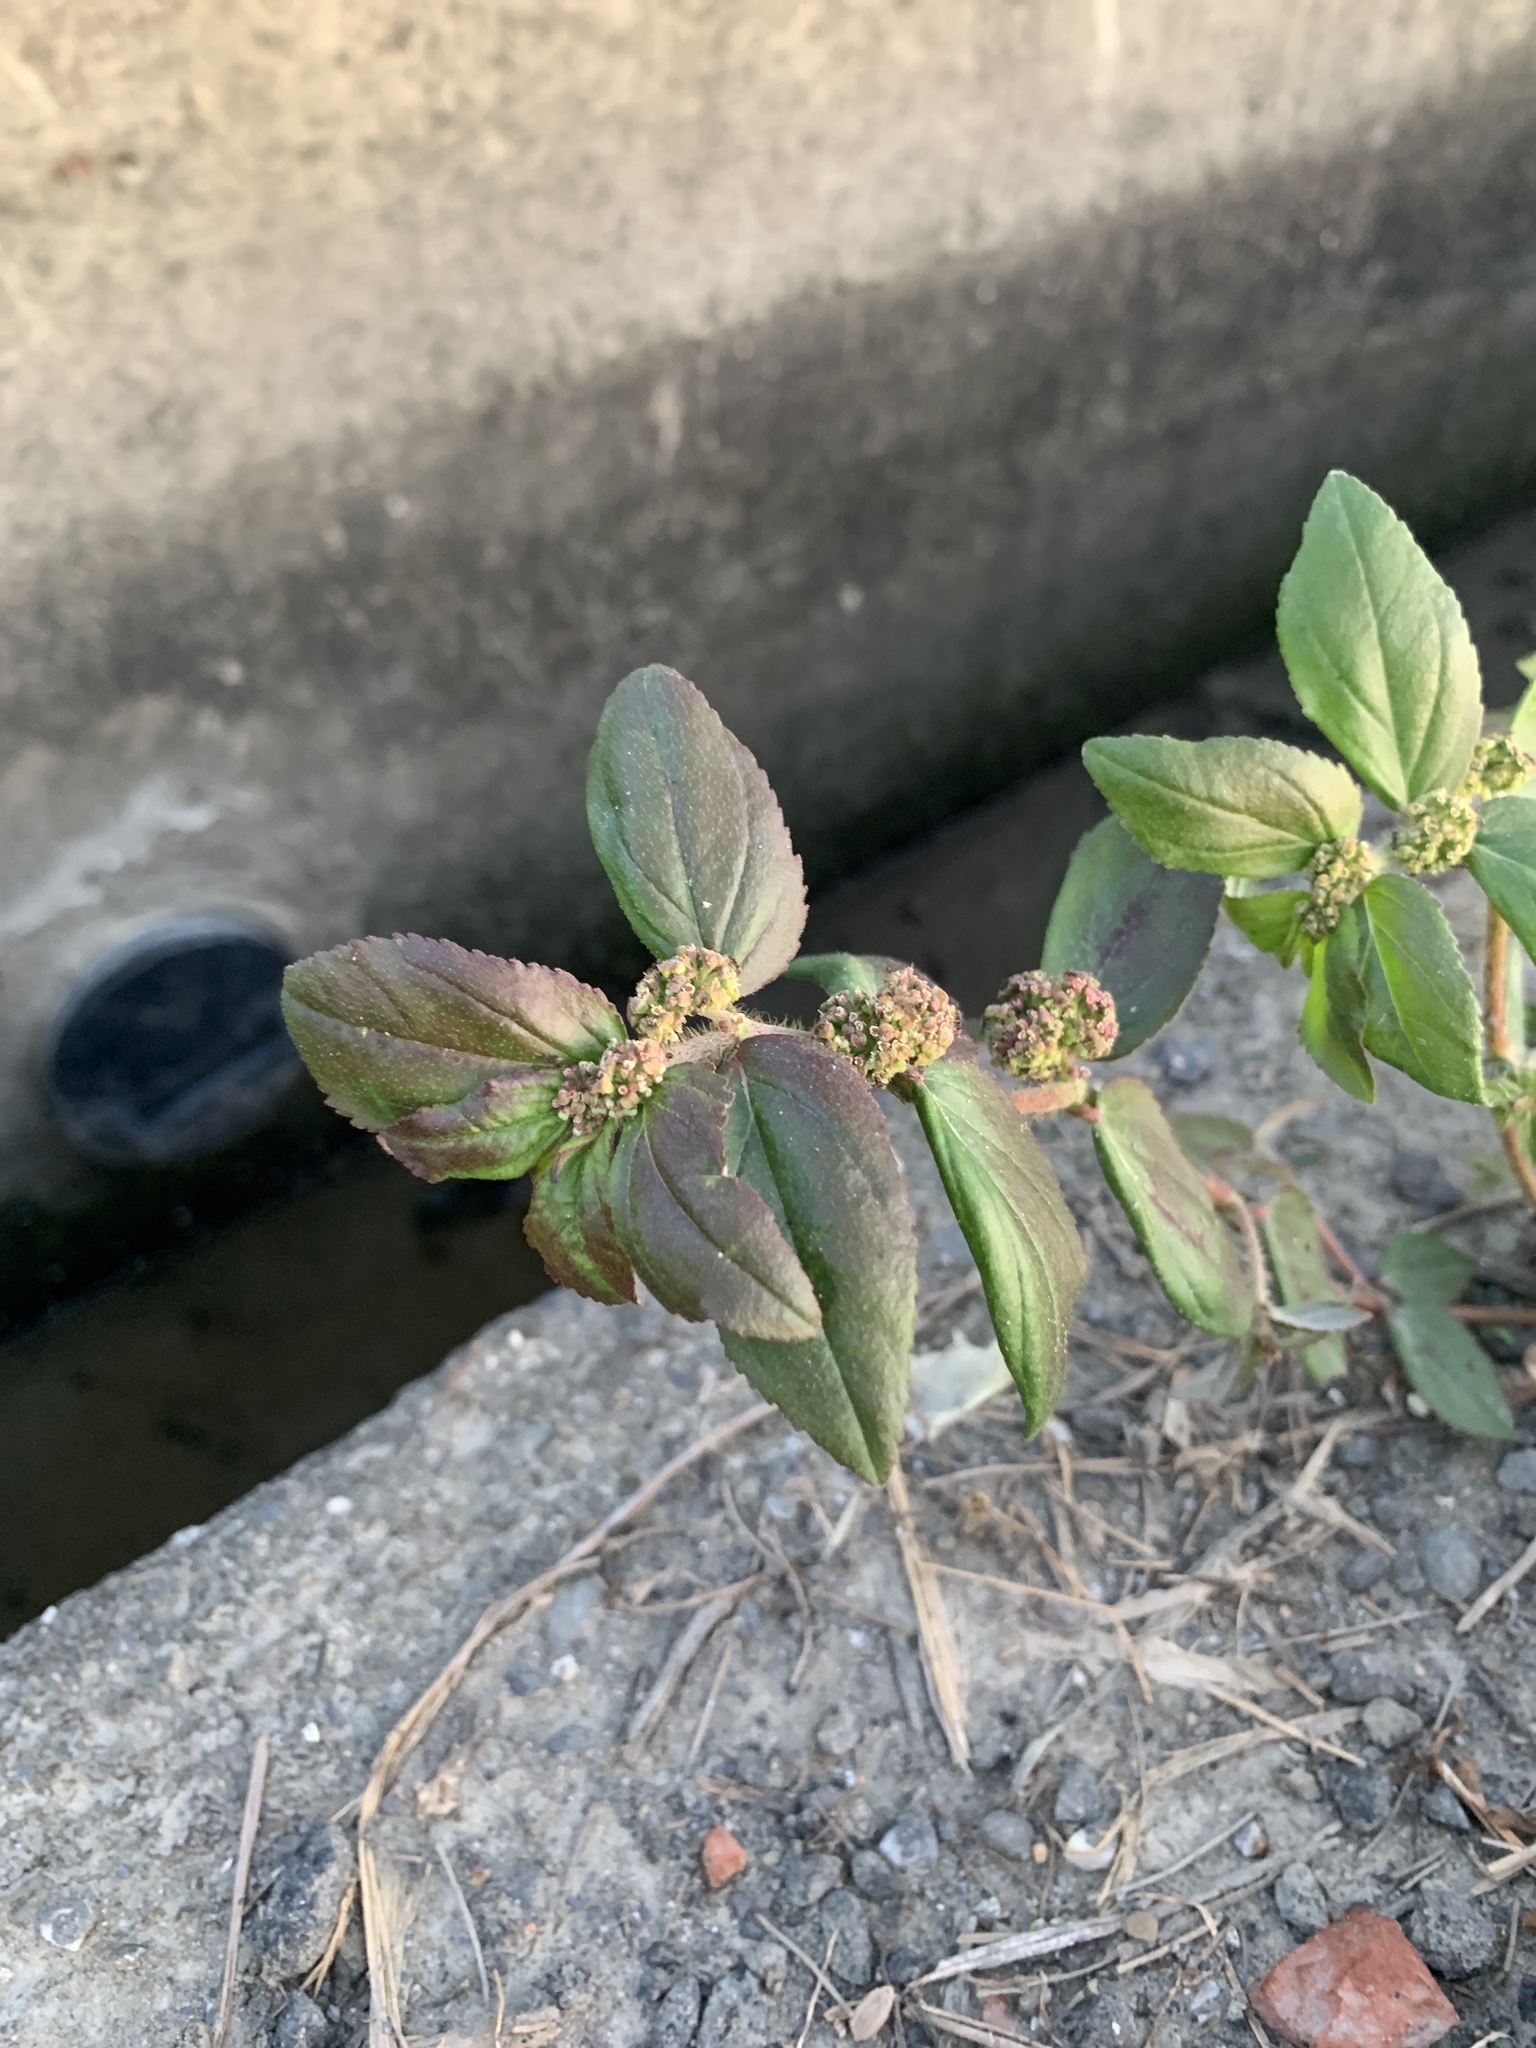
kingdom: Plantae
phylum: Tracheophyta
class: Magnoliopsida
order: Malpighiales
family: Euphorbiaceae
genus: Euphorbia
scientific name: Euphorbia hirta
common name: Pillpod sandmat
